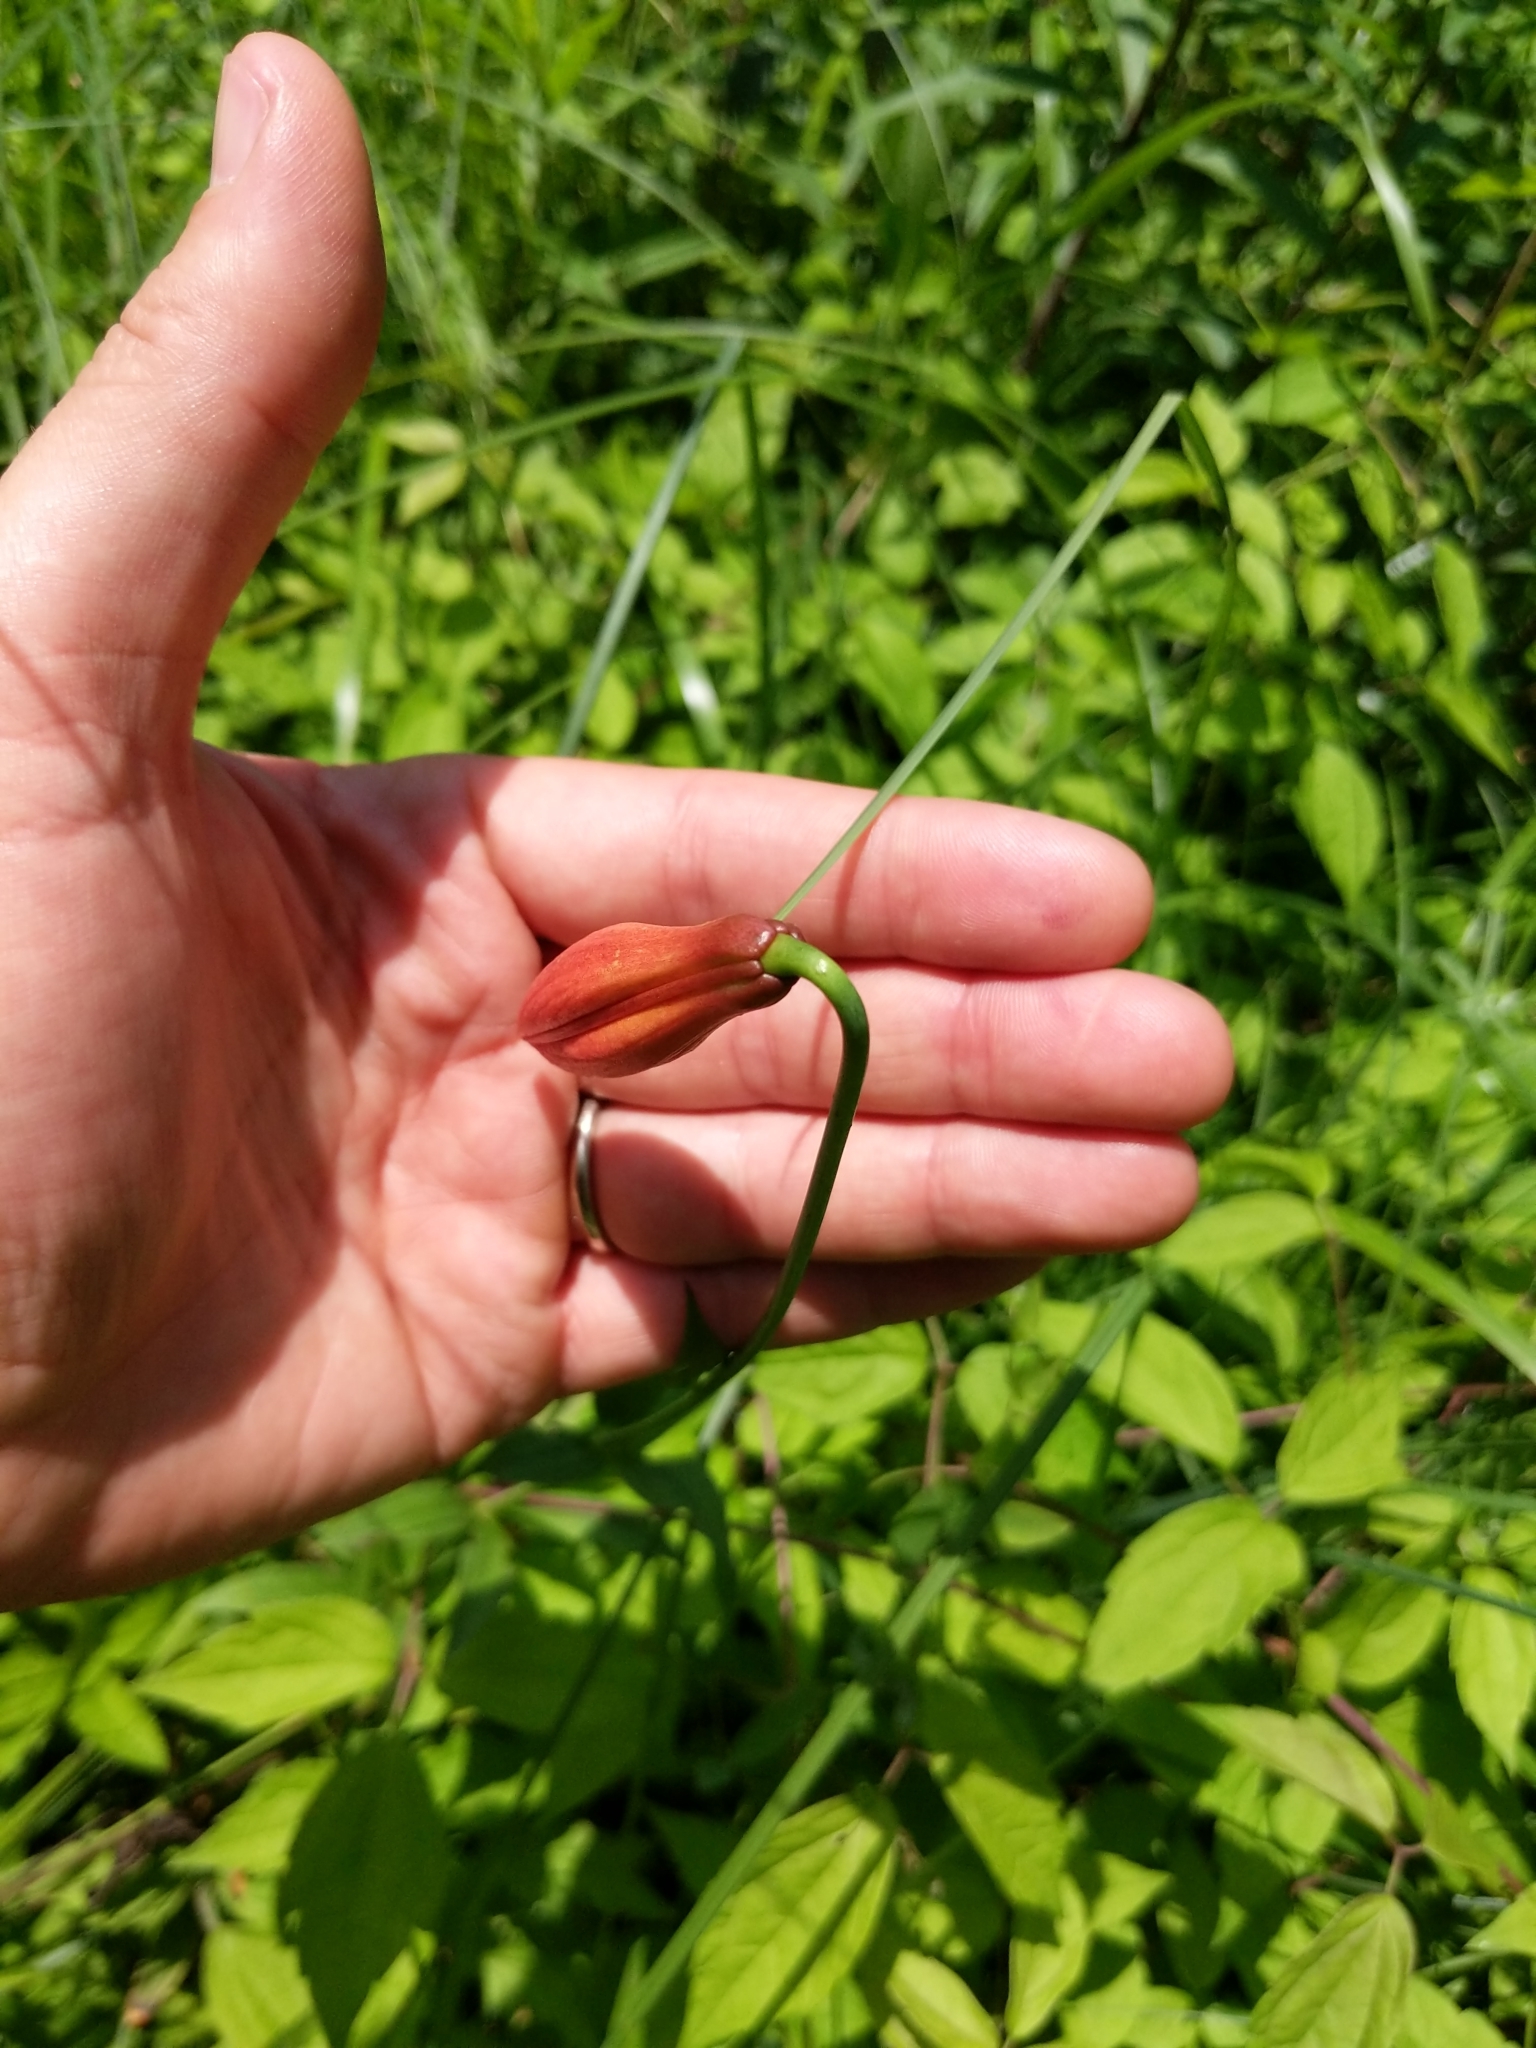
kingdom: Plantae
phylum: Tracheophyta
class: Liliopsida
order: Liliales
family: Liliaceae
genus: Lilium
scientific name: Lilium michiganense
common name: Michigan lily
